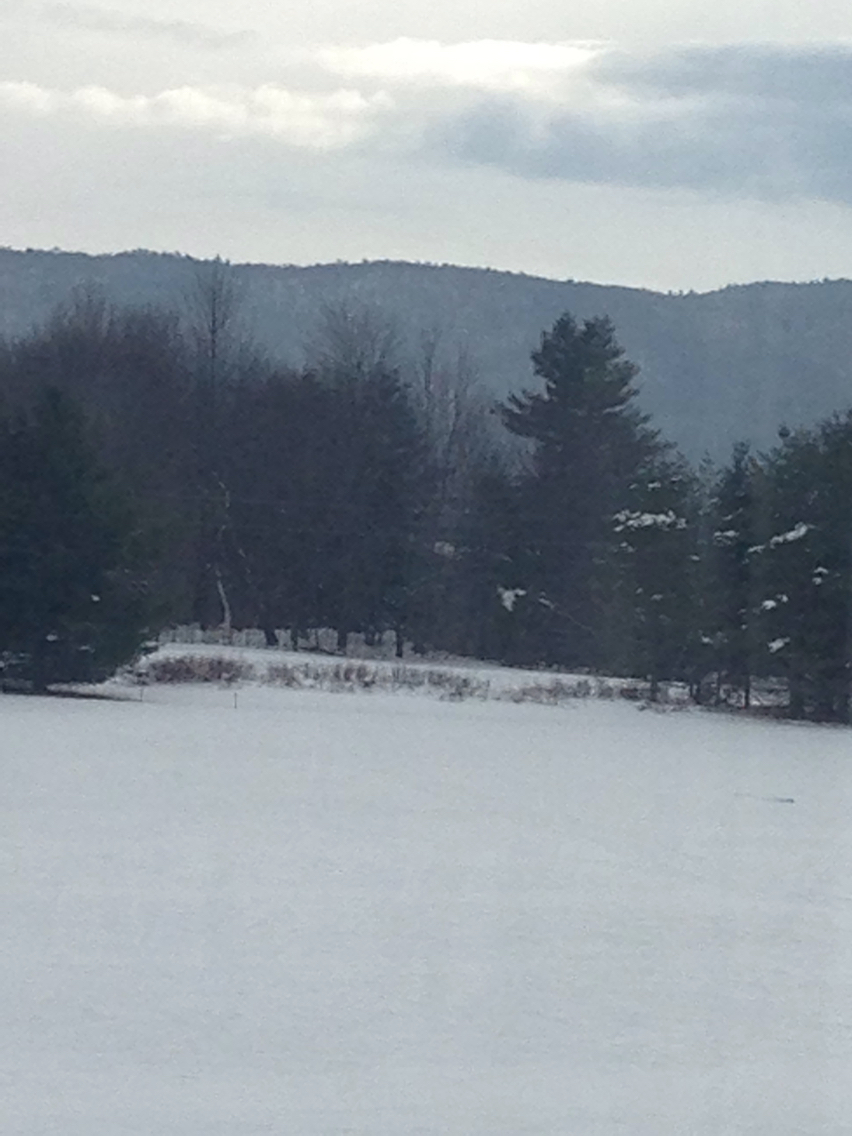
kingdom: Plantae
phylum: Tracheophyta
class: Pinopsida
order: Pinales
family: Pinaceae
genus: Pinus
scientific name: Pinus strobus
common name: Weymouth pine
